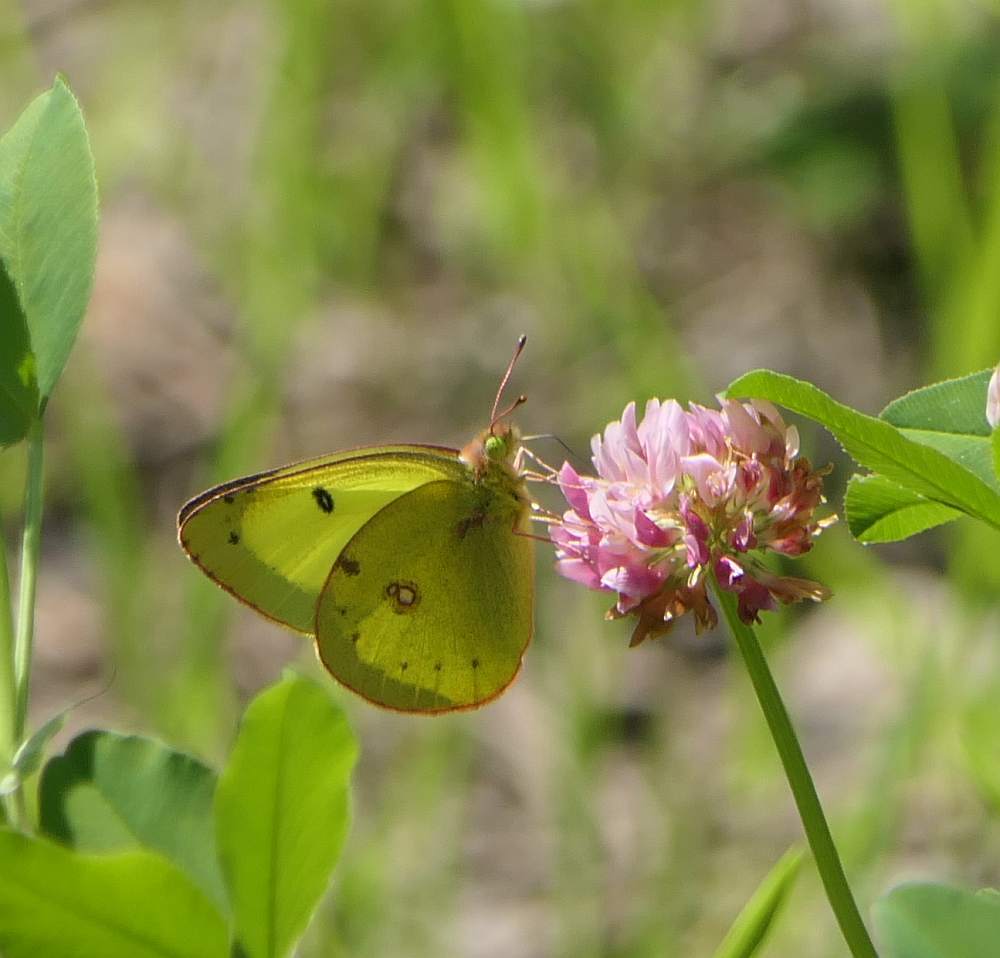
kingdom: Animalia
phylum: Arthropoda
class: Insecta
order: Lepidoptera
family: Pieridae
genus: Colias
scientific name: Colias philodice
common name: Clouded sulphur
